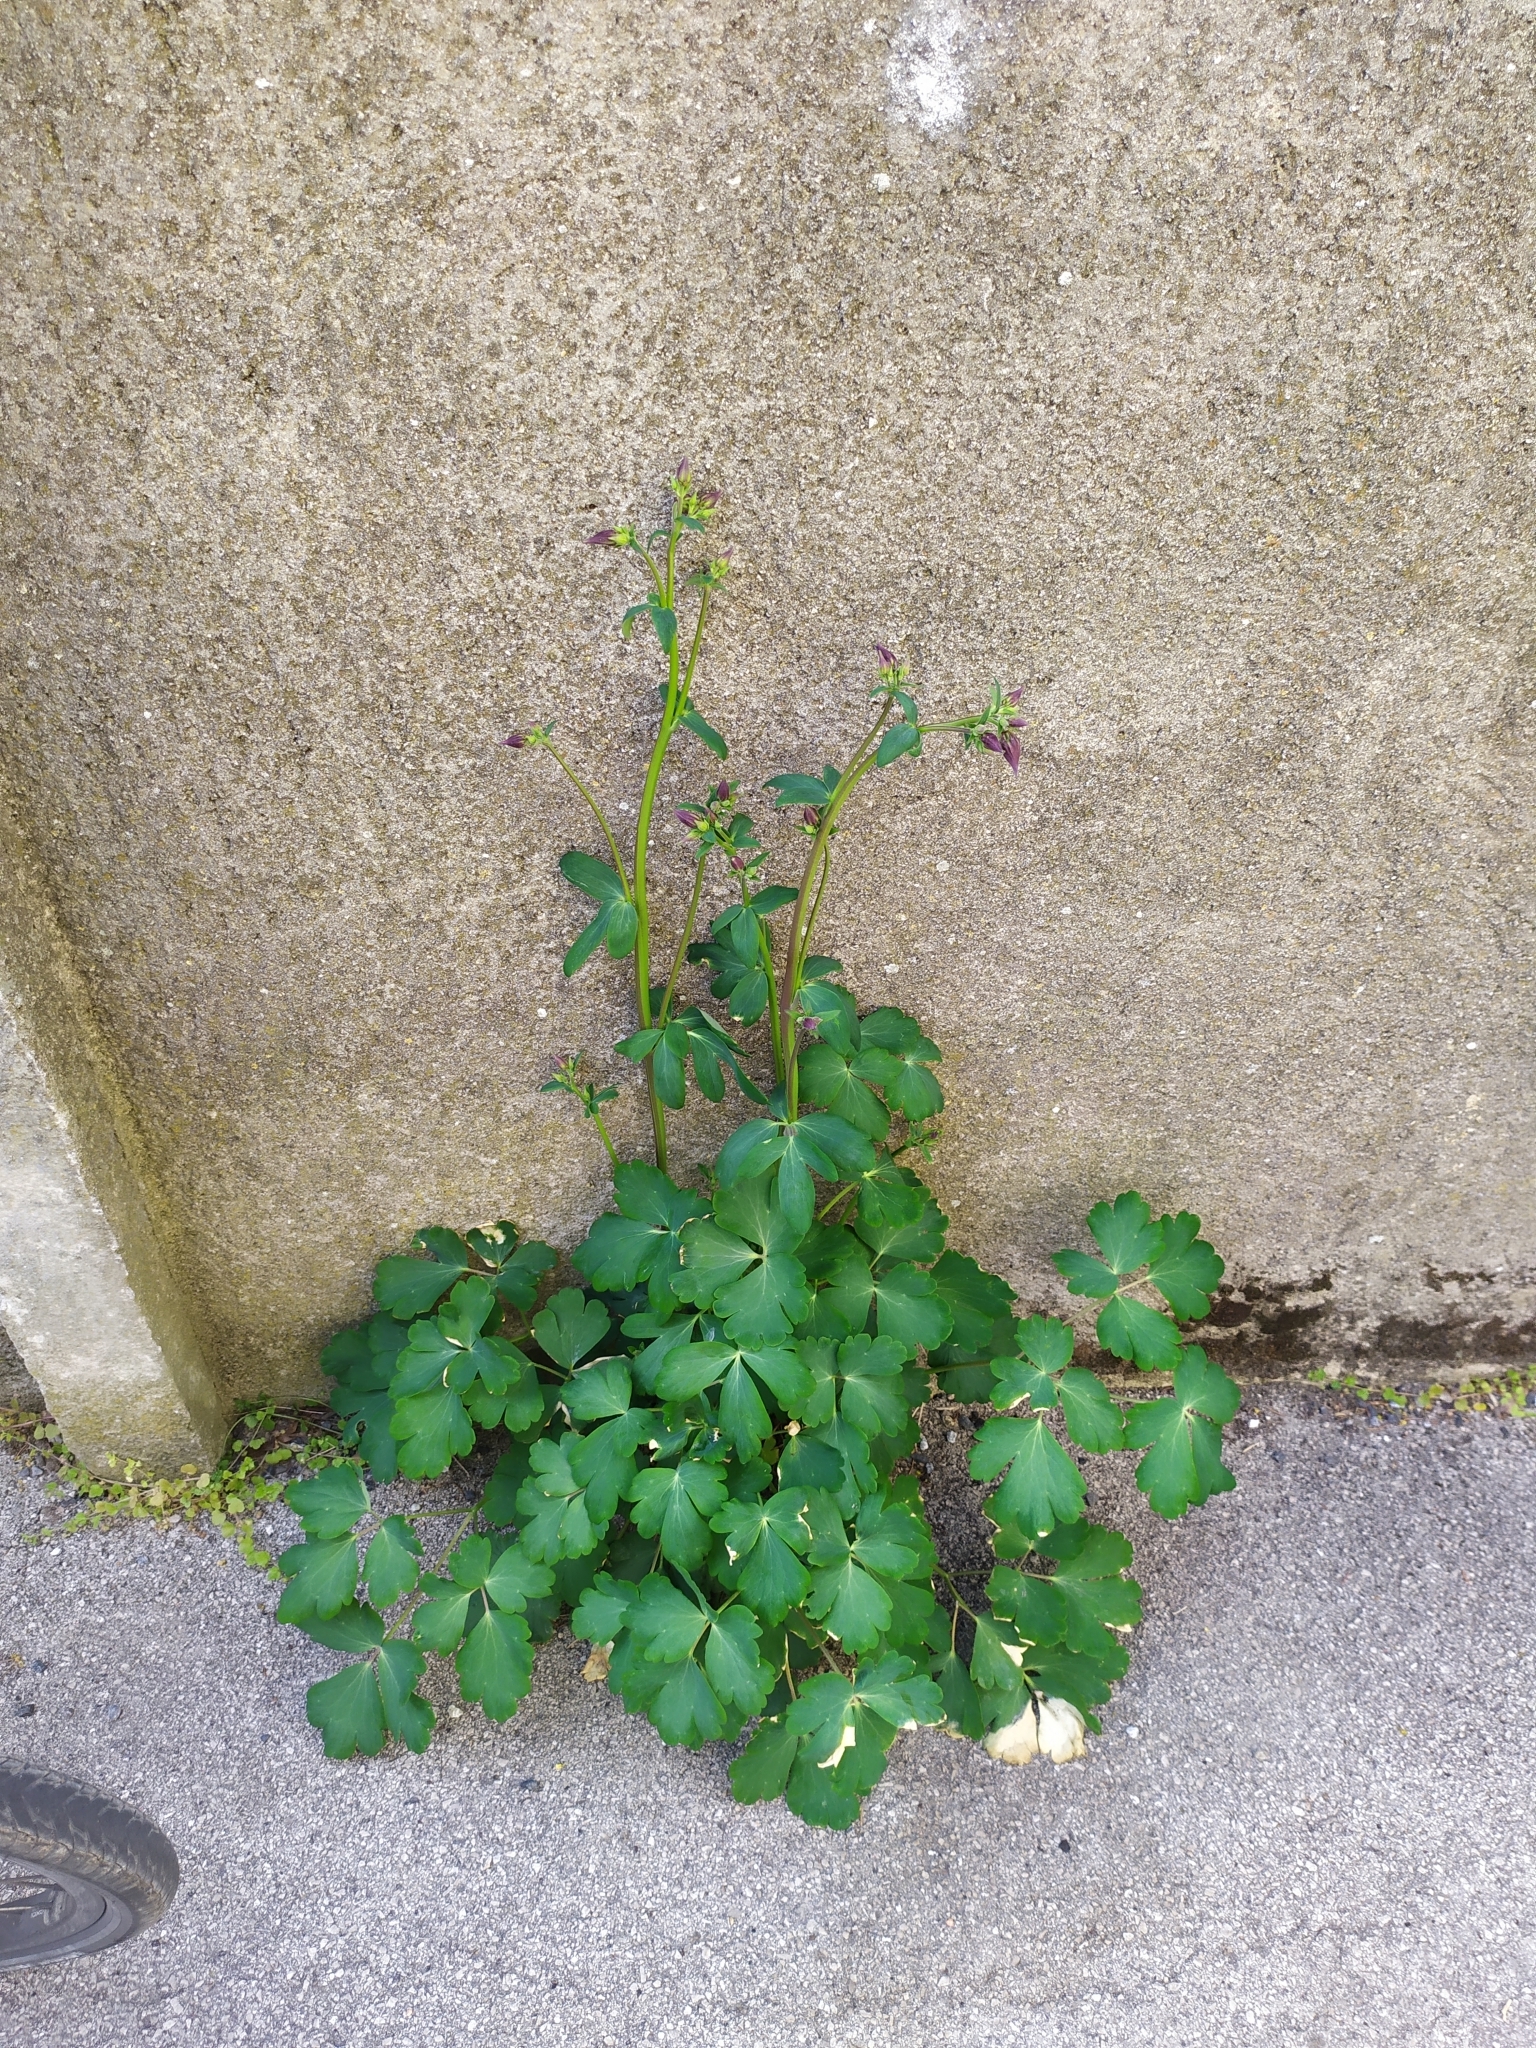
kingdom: Plantae
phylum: Tracheophyta
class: Magnoliopsida
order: Ranunculales
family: Ranunculaceae
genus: Aquilegia
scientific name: Aquilegia vulgaris
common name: Columbine
